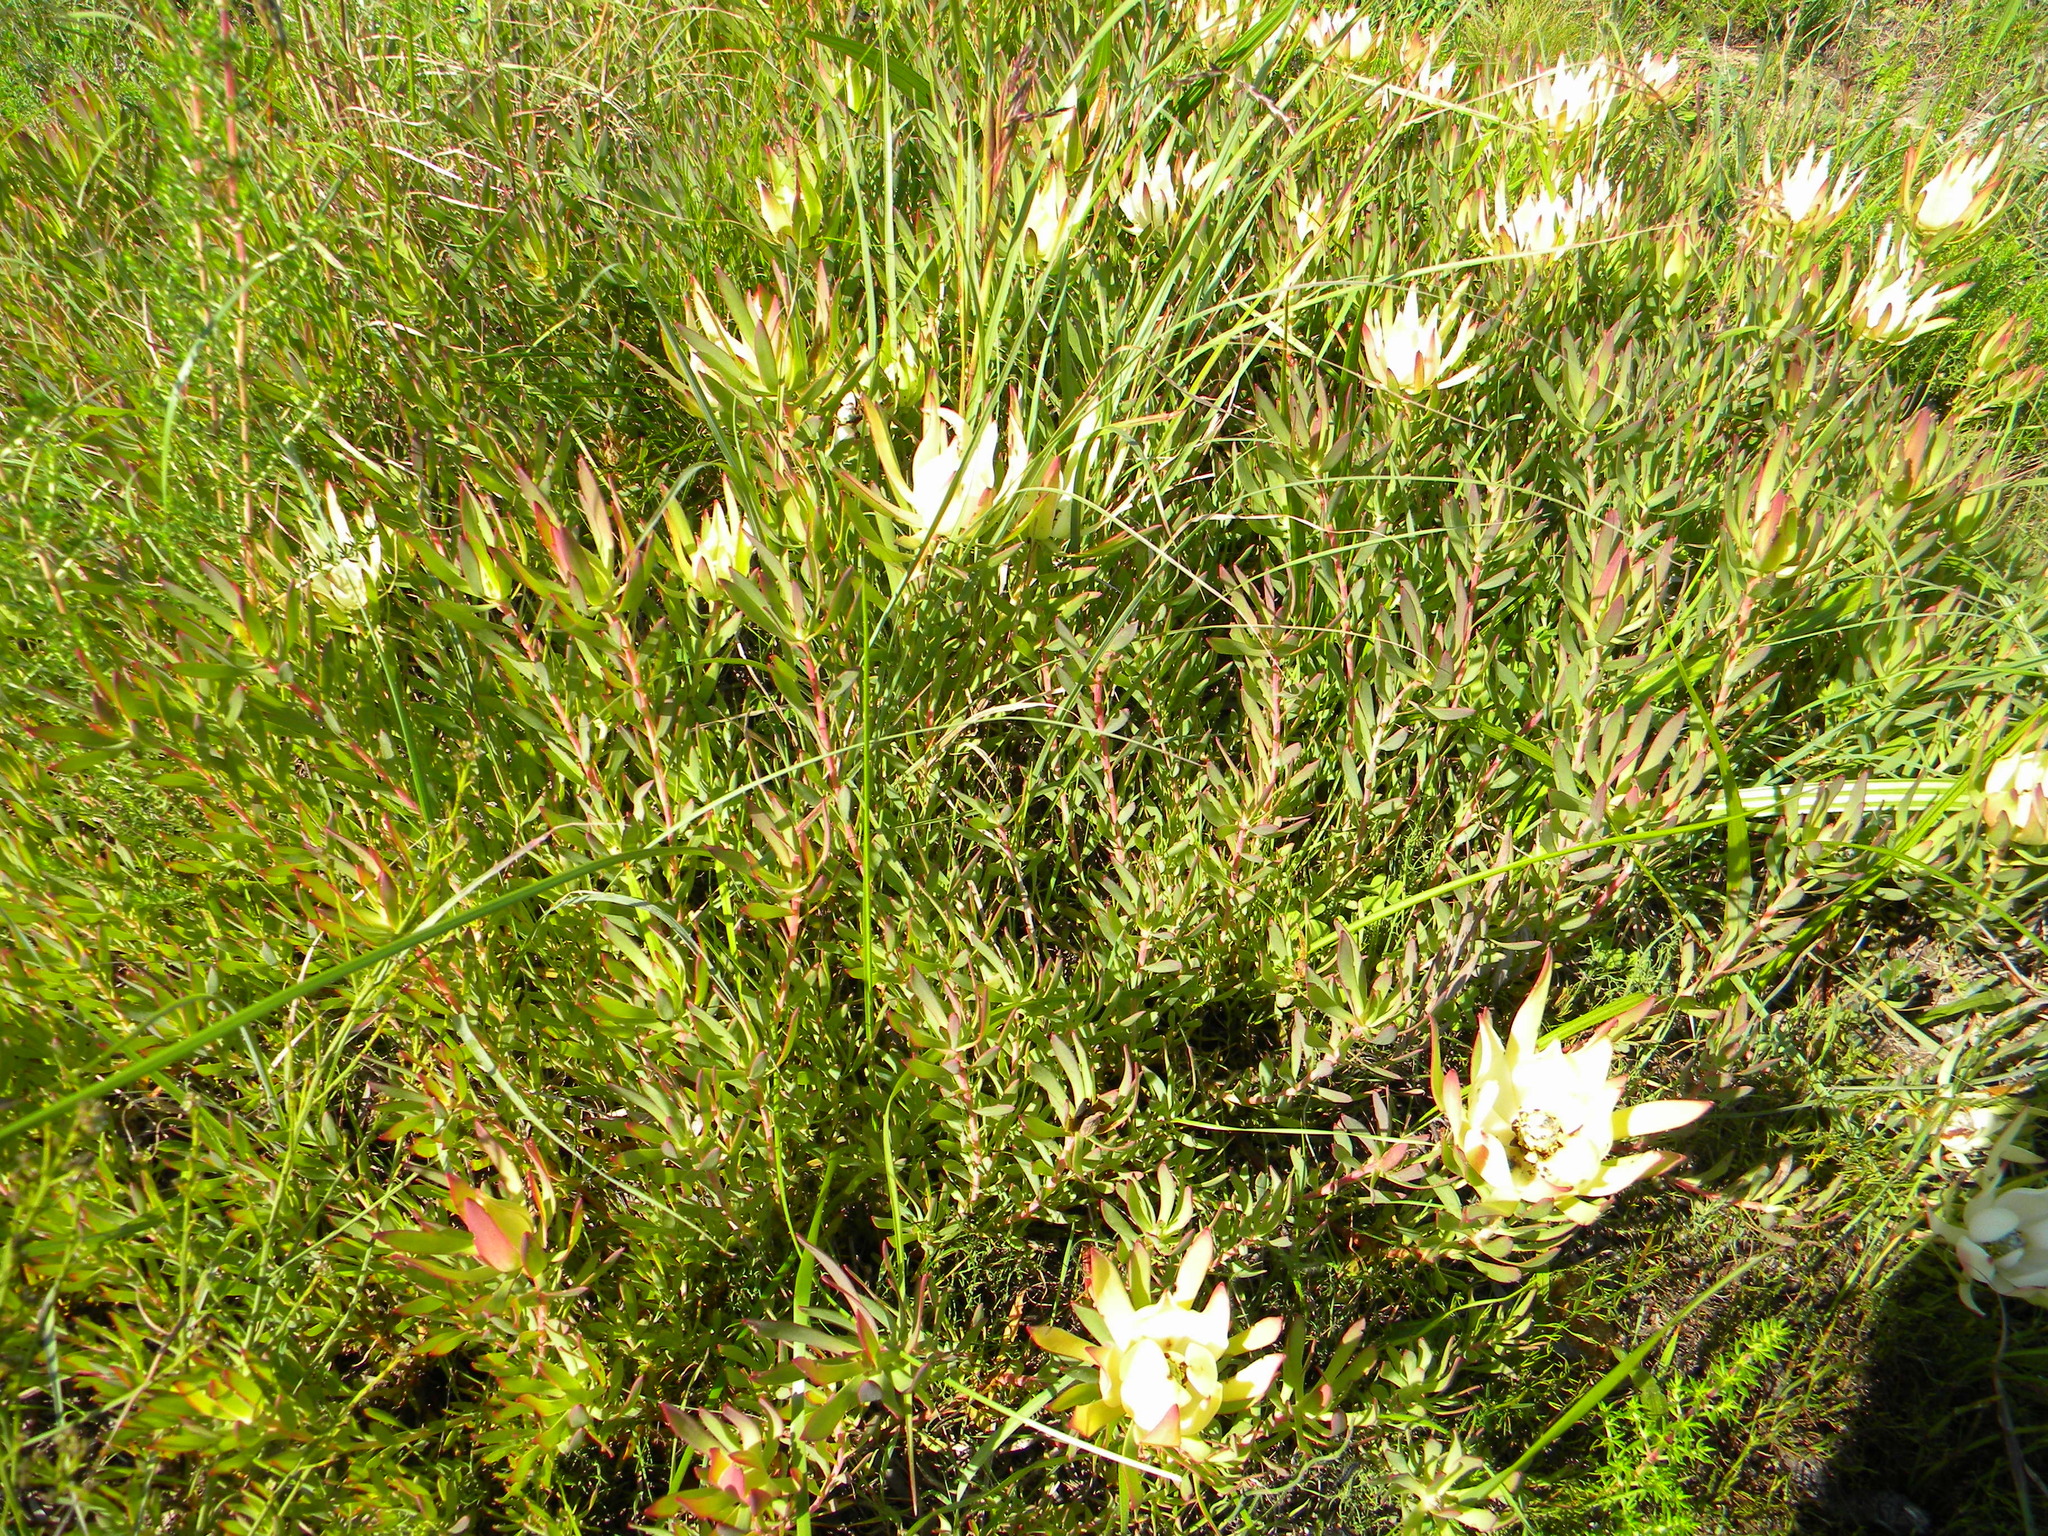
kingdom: Plantae
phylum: Tracheophyta
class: Magnoliopsida
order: Proteales
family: Proteaceae
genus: Leucadendron
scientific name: Leucadendron salignum
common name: Common sunshine conebush
